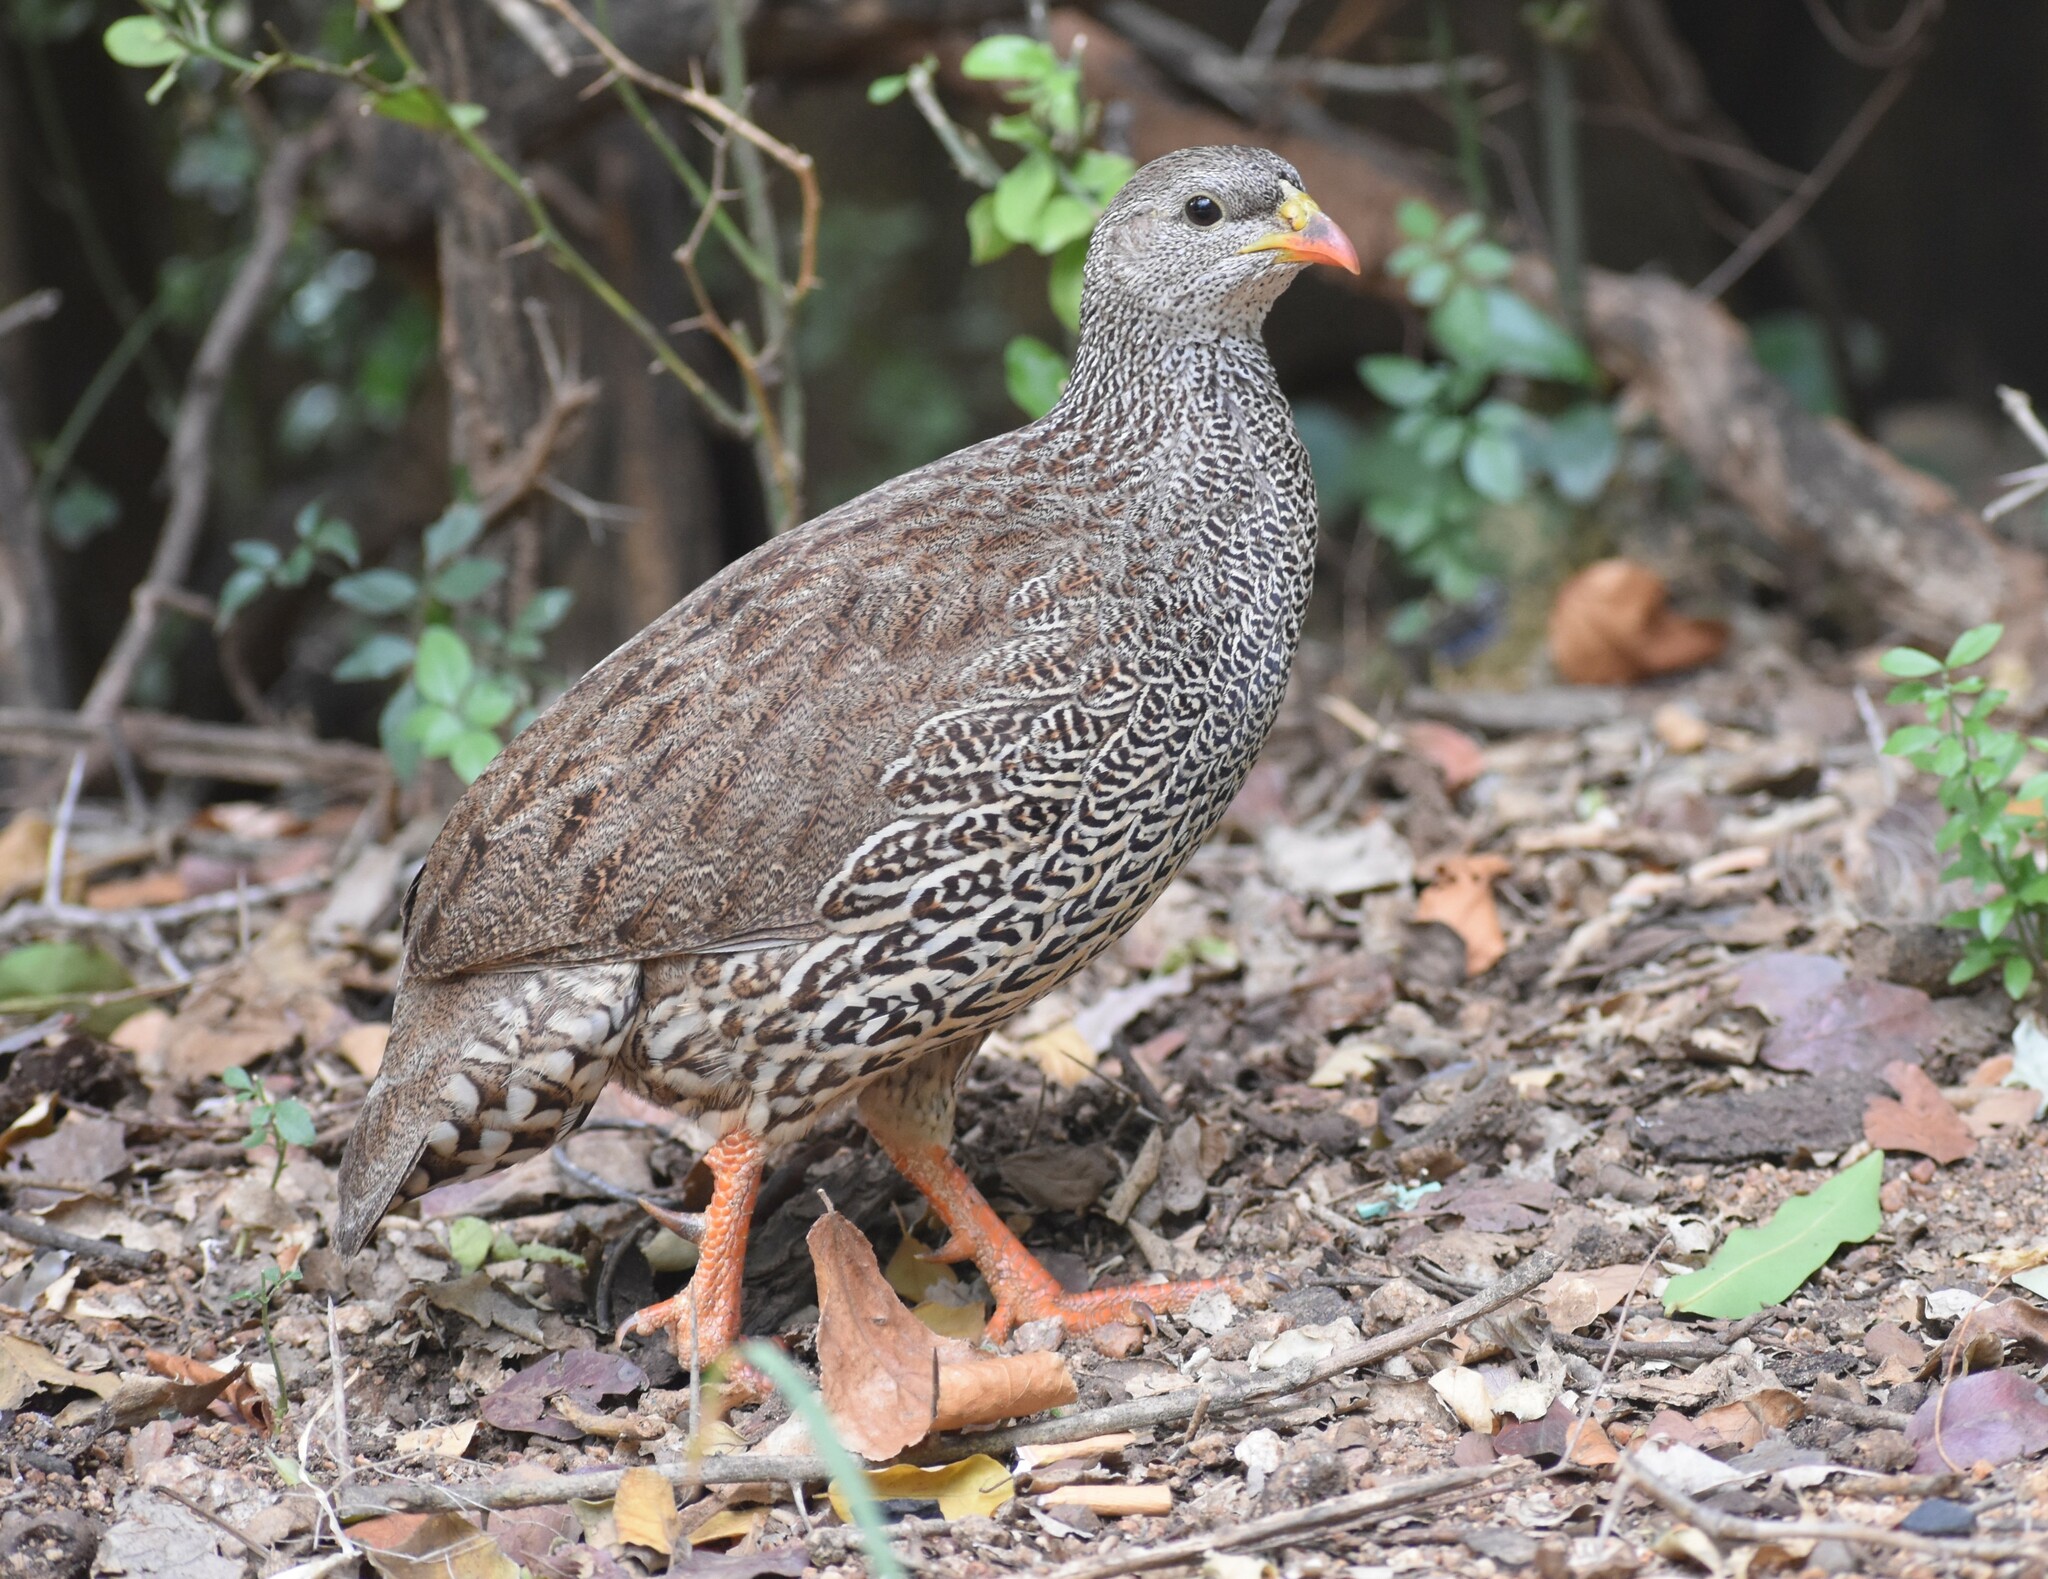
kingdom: Animalia
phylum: Chordata
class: Aves
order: Galliformes
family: Phasianidae
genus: Pternistis
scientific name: Pternistis natalensis
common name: Natal spurfowl
